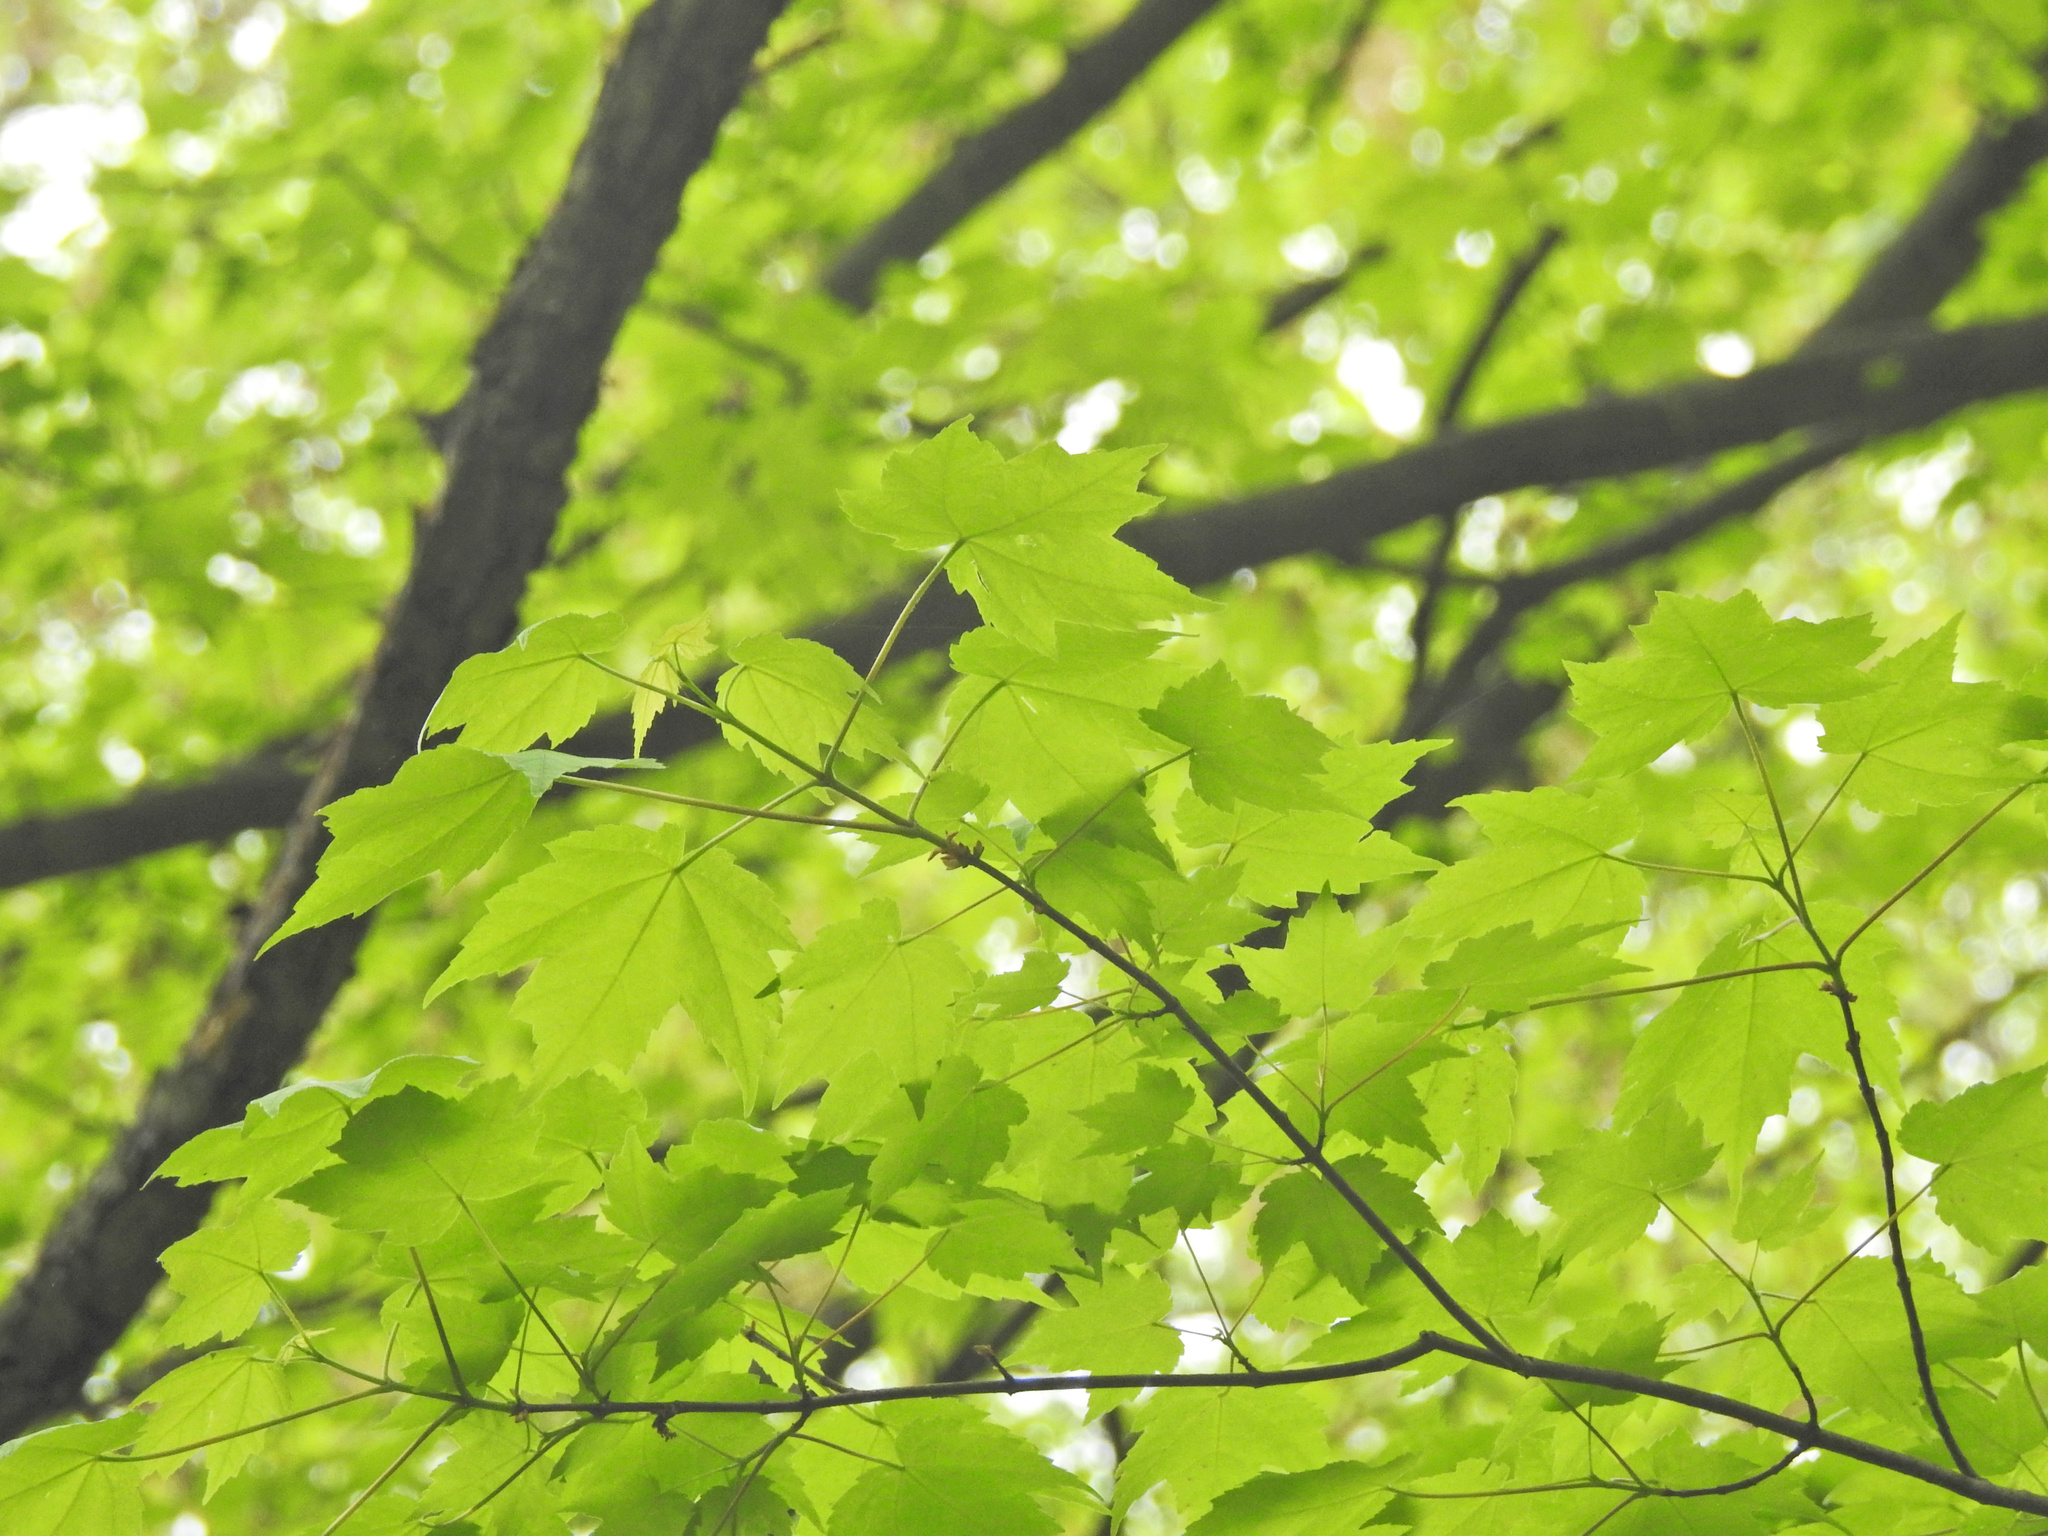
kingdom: Plantae
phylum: Tracheophyta
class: Magnoliopsida
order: Sapindales
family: Sapindaceae
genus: Acer
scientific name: Acer rubrum
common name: Red maple
